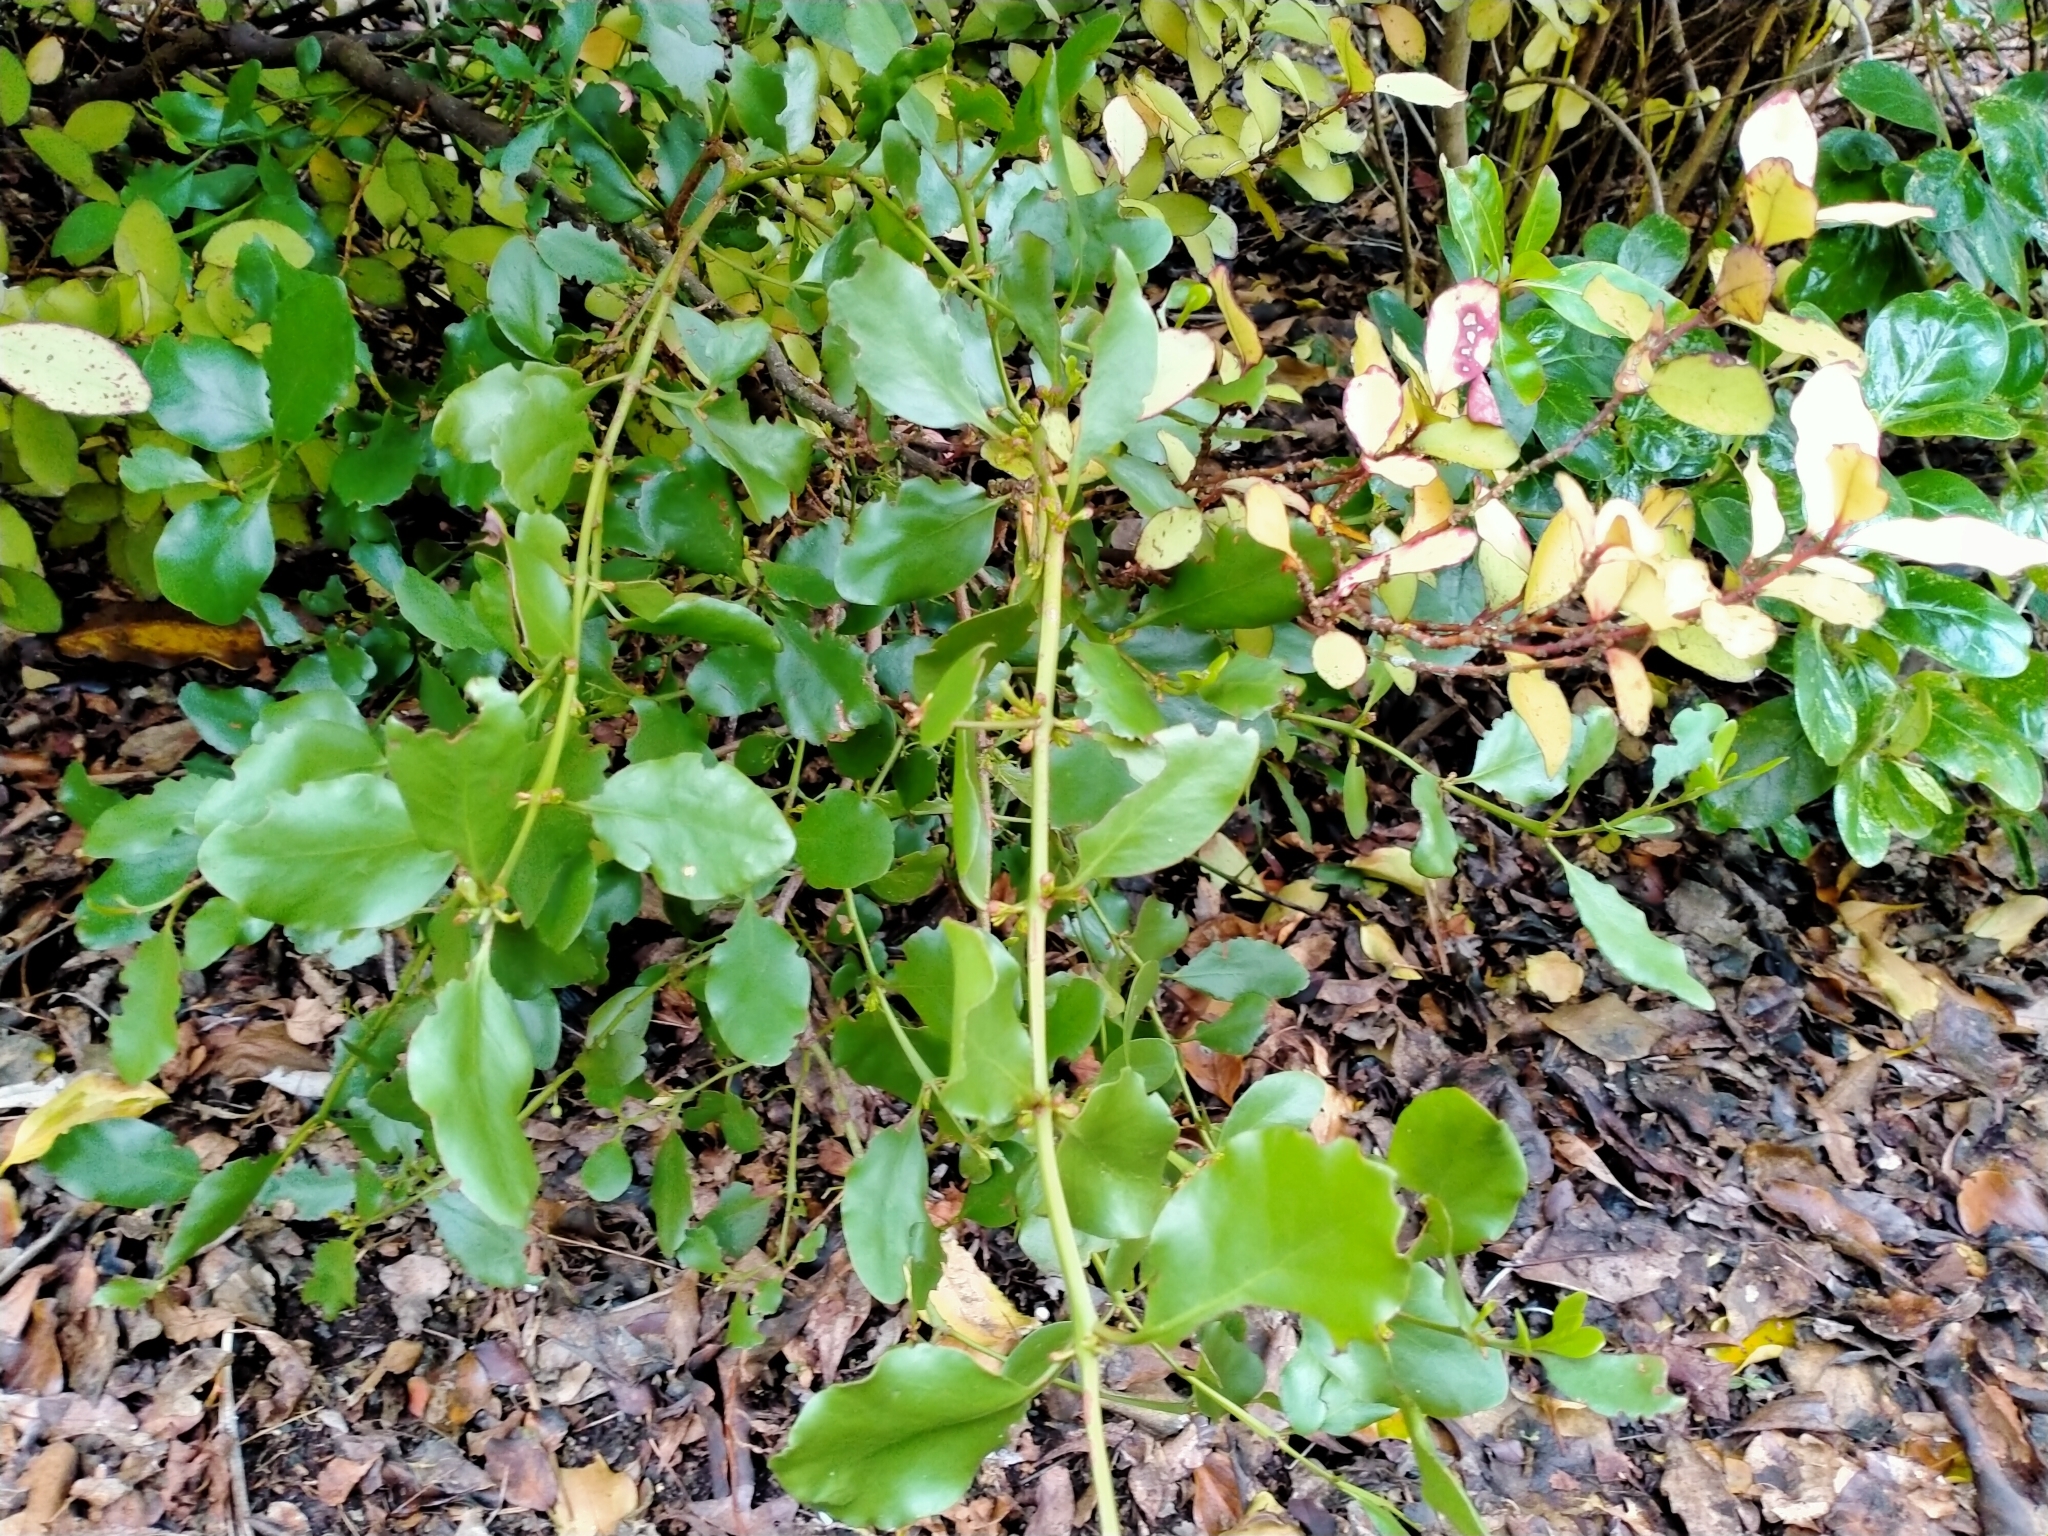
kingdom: Plantae
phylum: Tracheophyta
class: Magnoliopsida
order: Santalales
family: Loranthaceae
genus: Ileostylus
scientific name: Ileostylus micranthus
